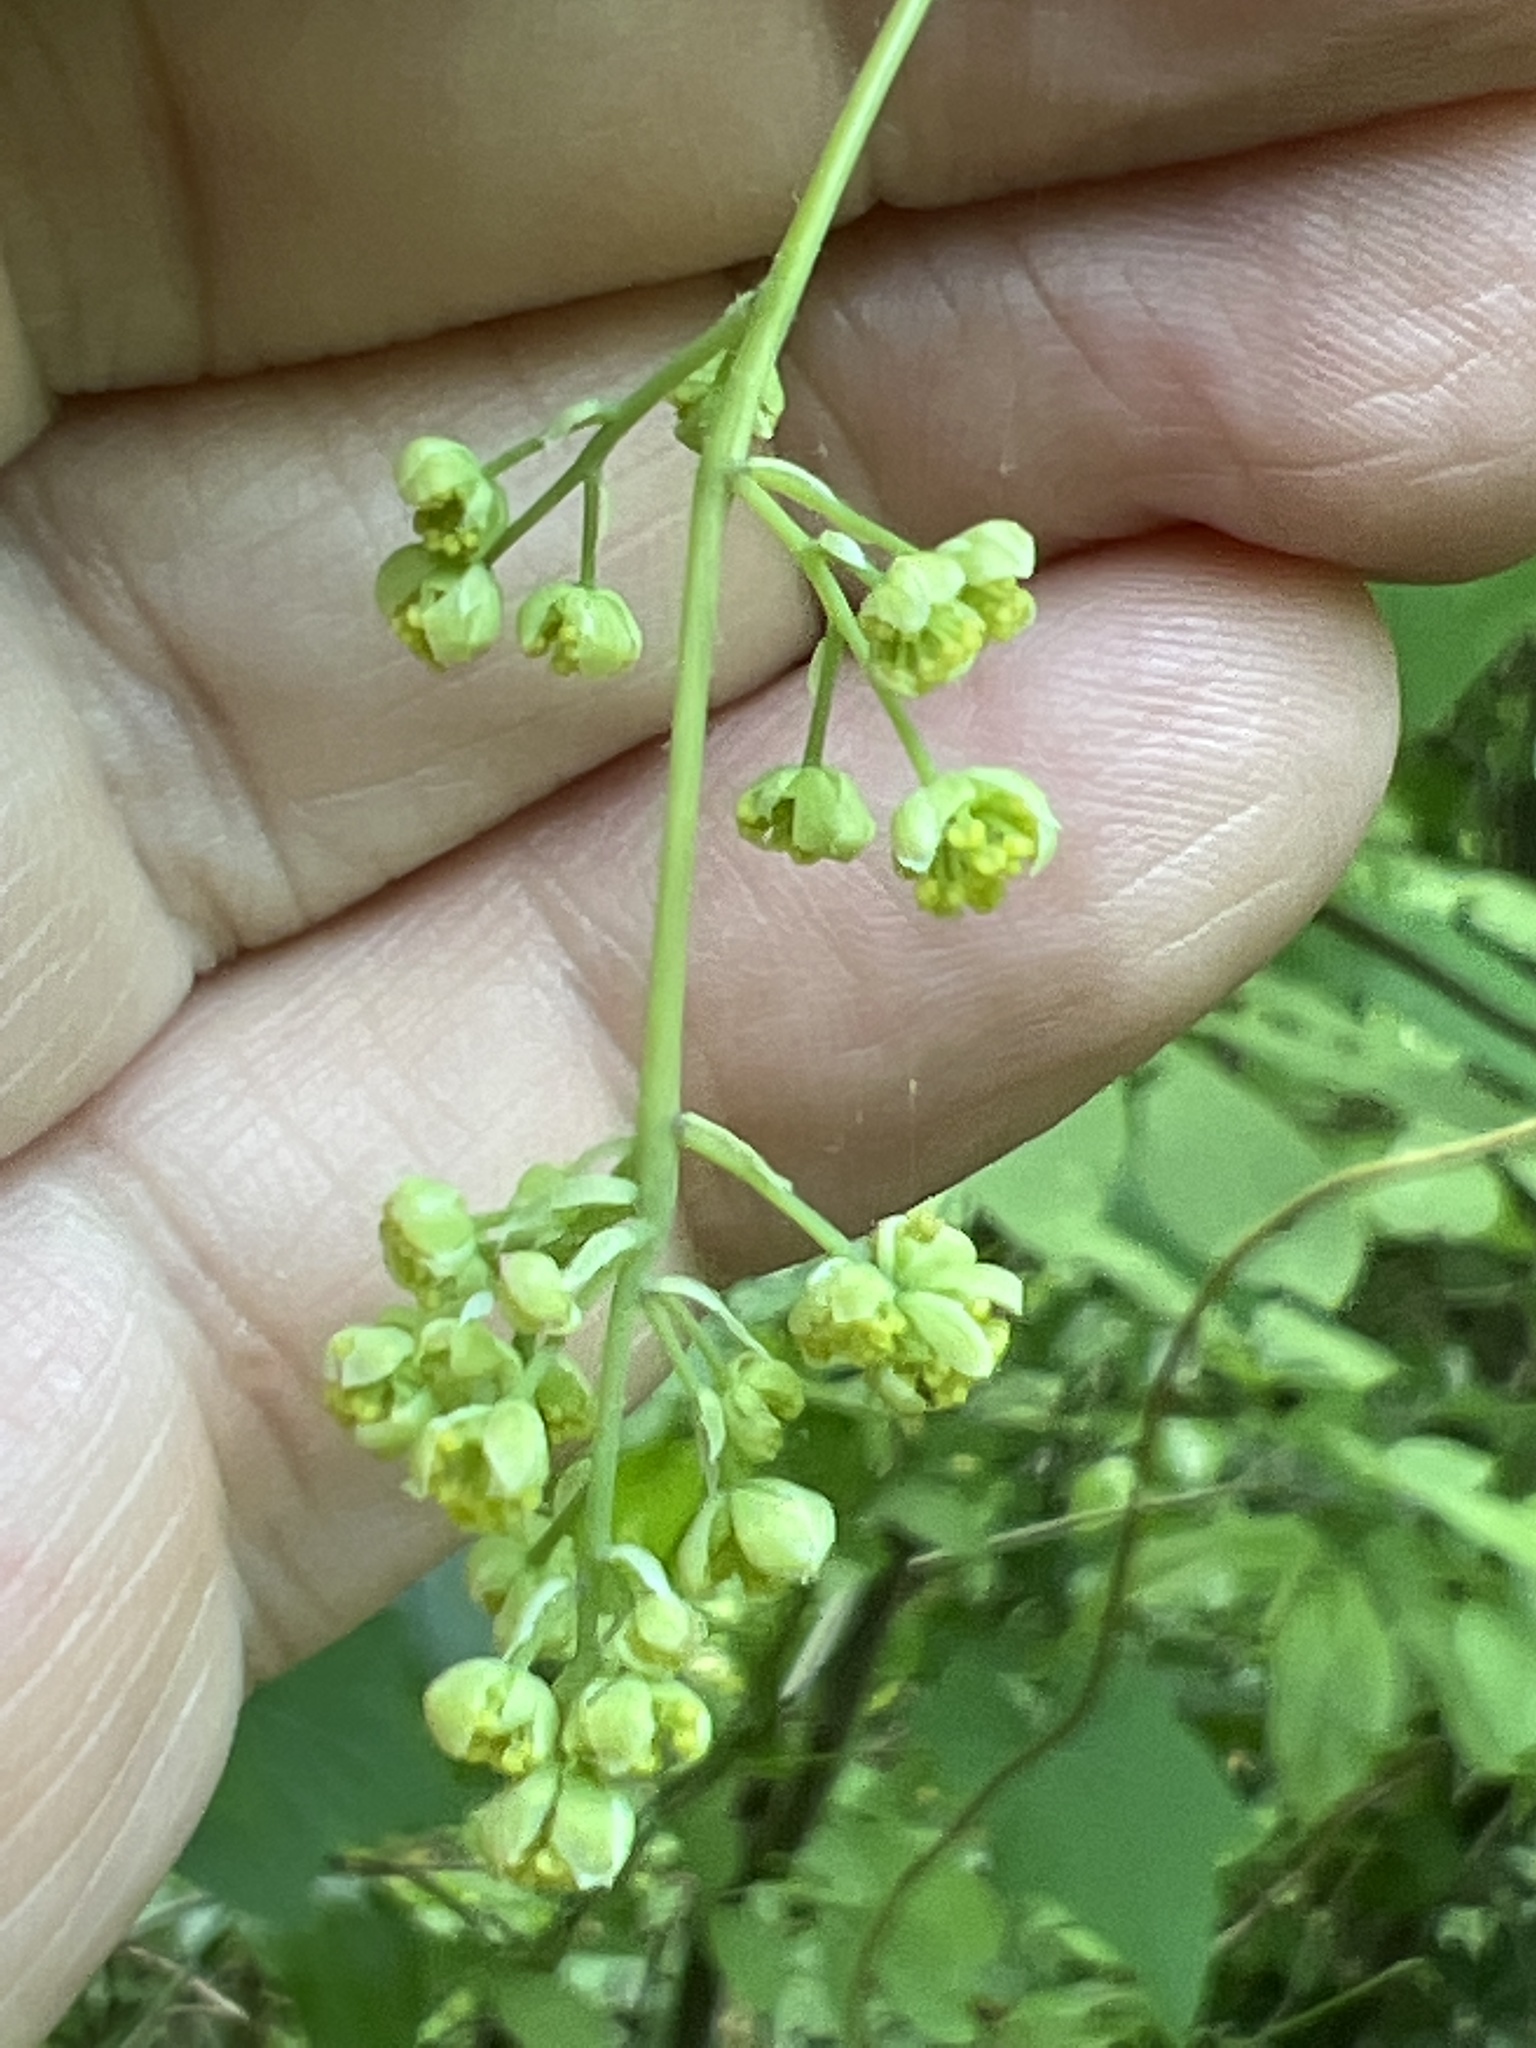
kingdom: Plantae
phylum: Tracheophyta
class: Magnoliopsida
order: Ranunculales
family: Menispermaceae
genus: Menispermum
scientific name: Menispermum canadense
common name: Moonseed
